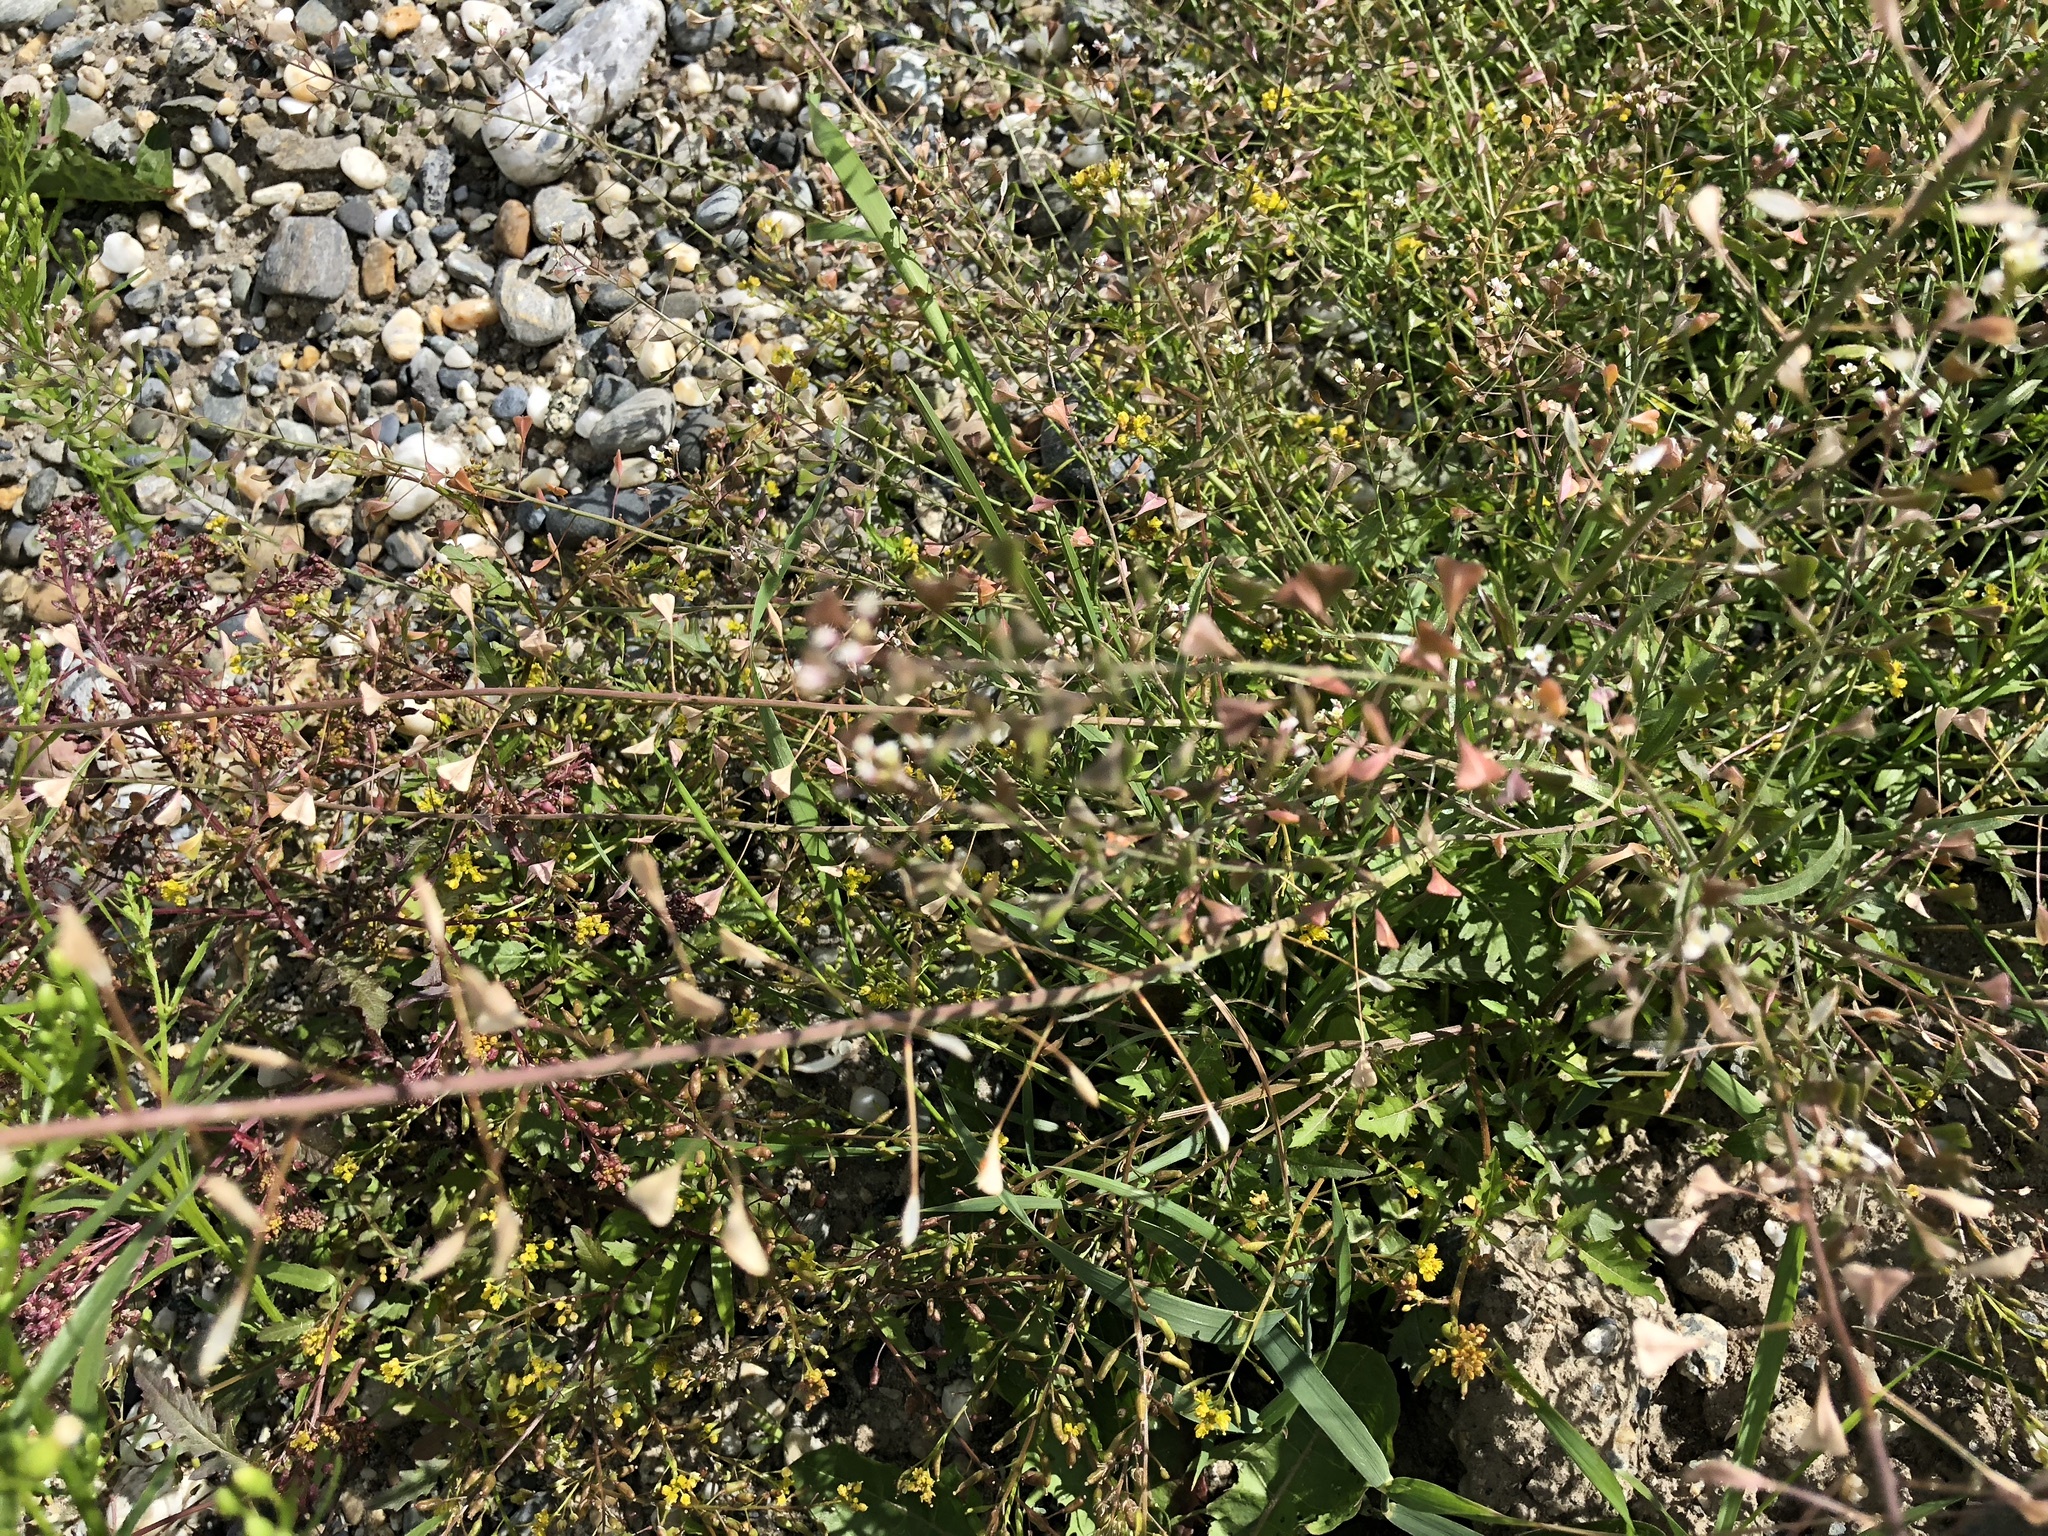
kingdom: Plantae
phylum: Tracheophyta
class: Magnoliopsida
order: Brassicales
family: Brassicaceae
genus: Capsella
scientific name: Capsella bursa-pastoris
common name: Shepherd's purse
